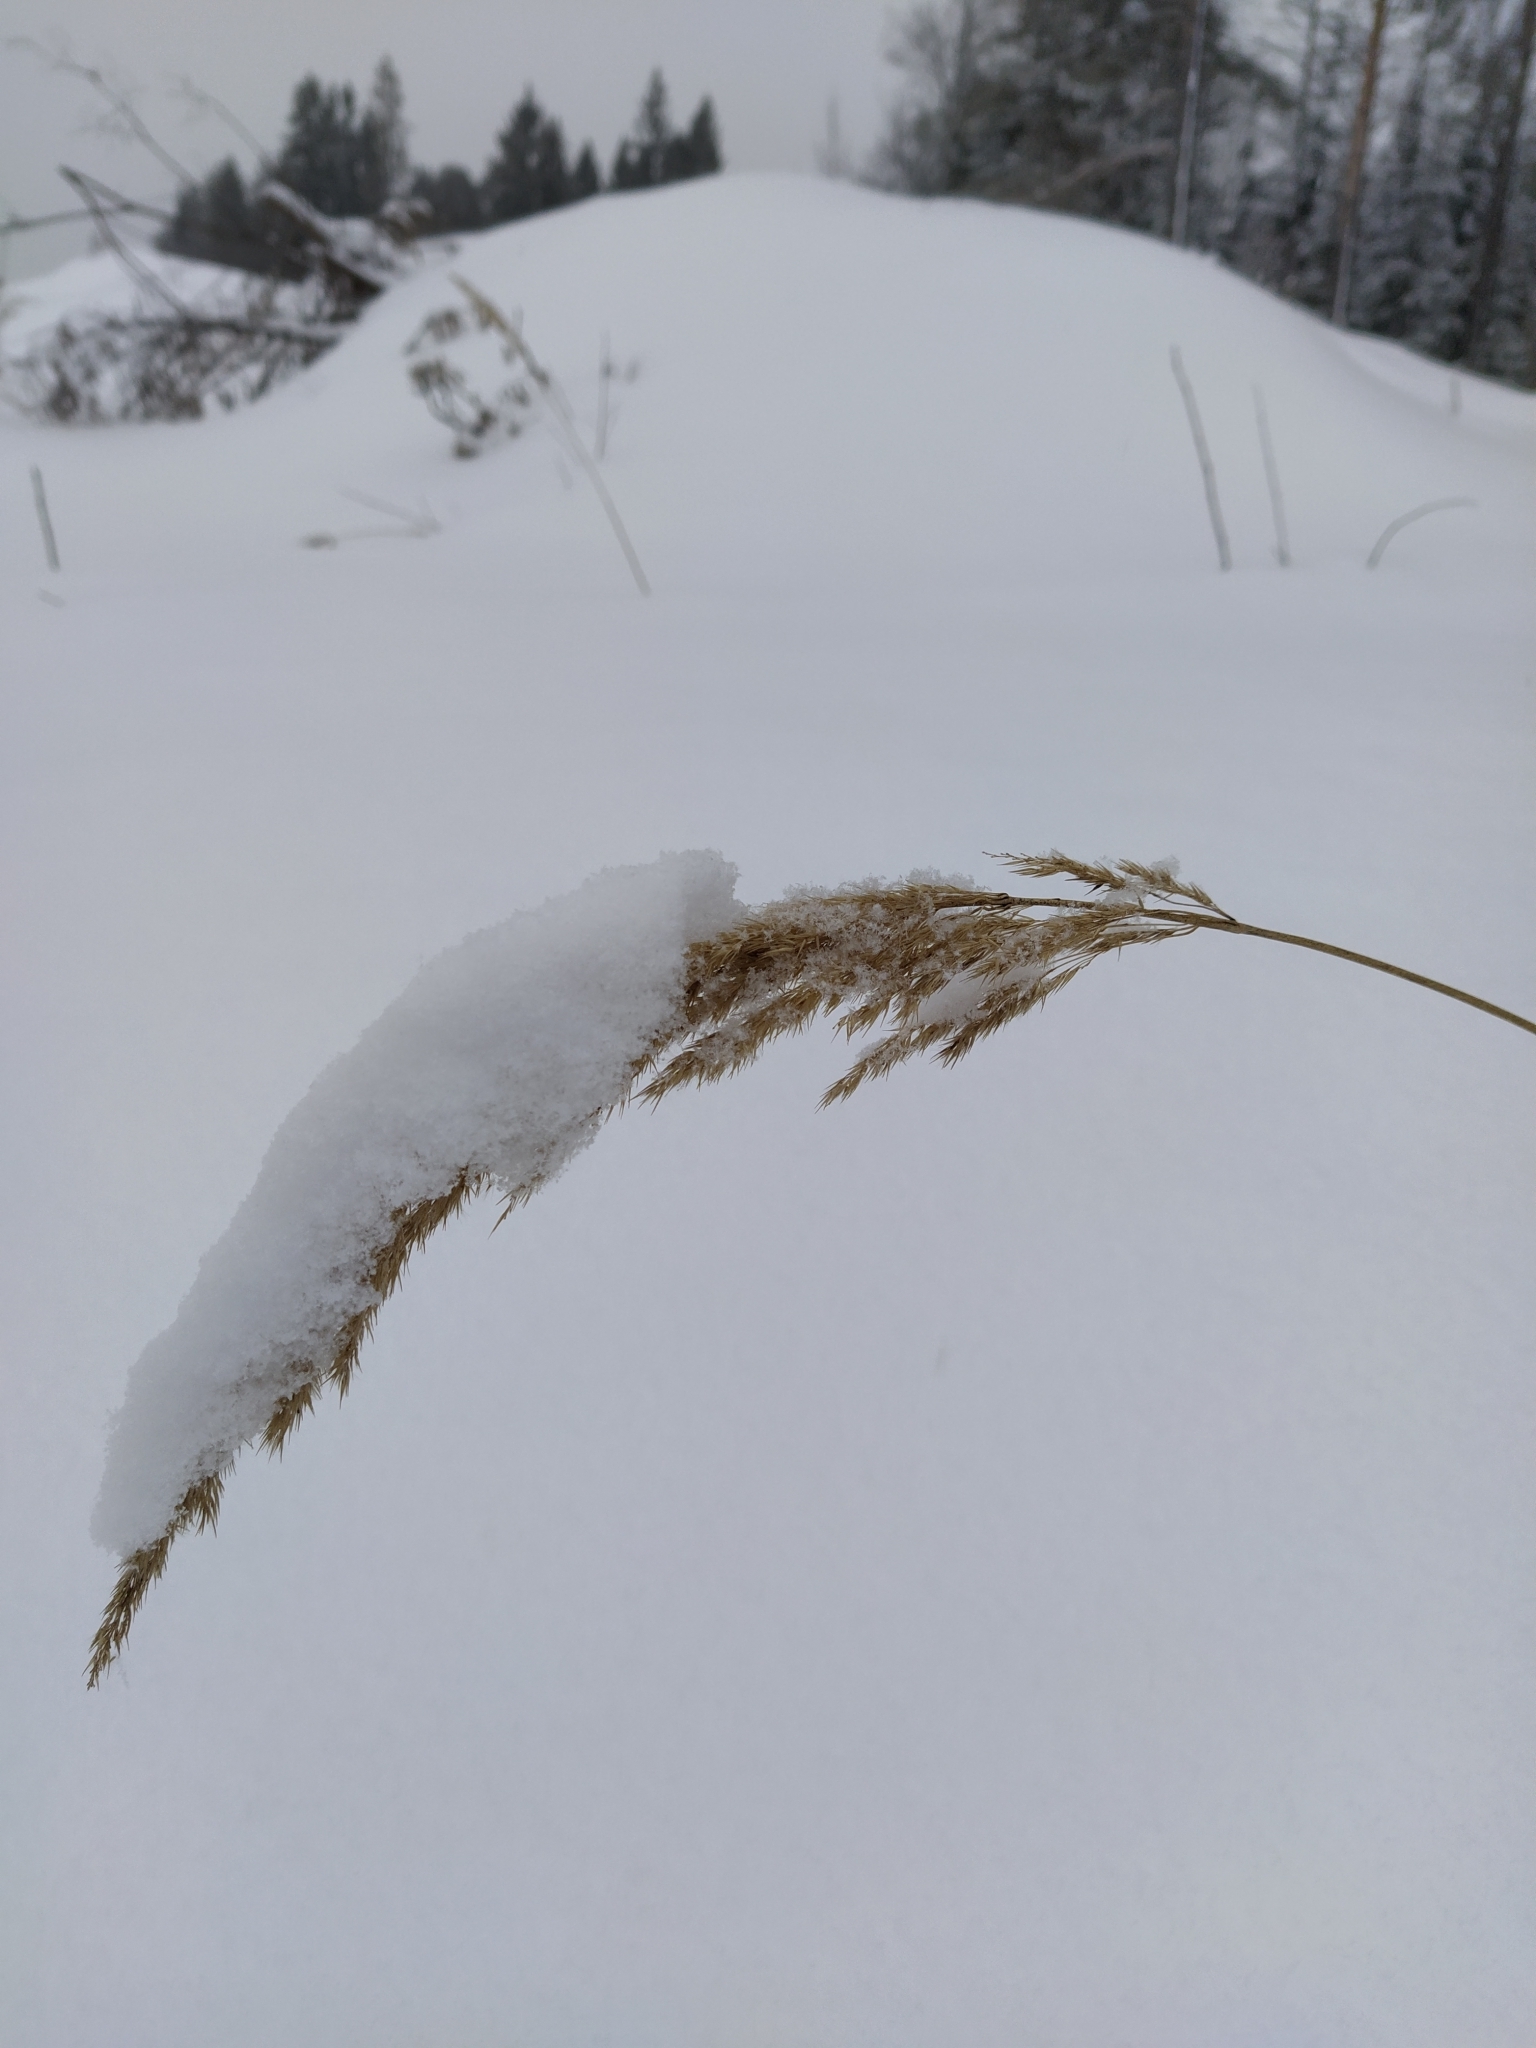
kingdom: Plantae
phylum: Tracheophyta
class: Liliopsida
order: Poales
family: Poaceae
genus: Calamagrostis
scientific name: Calamagrostis epigejos
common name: Wood small-reed
